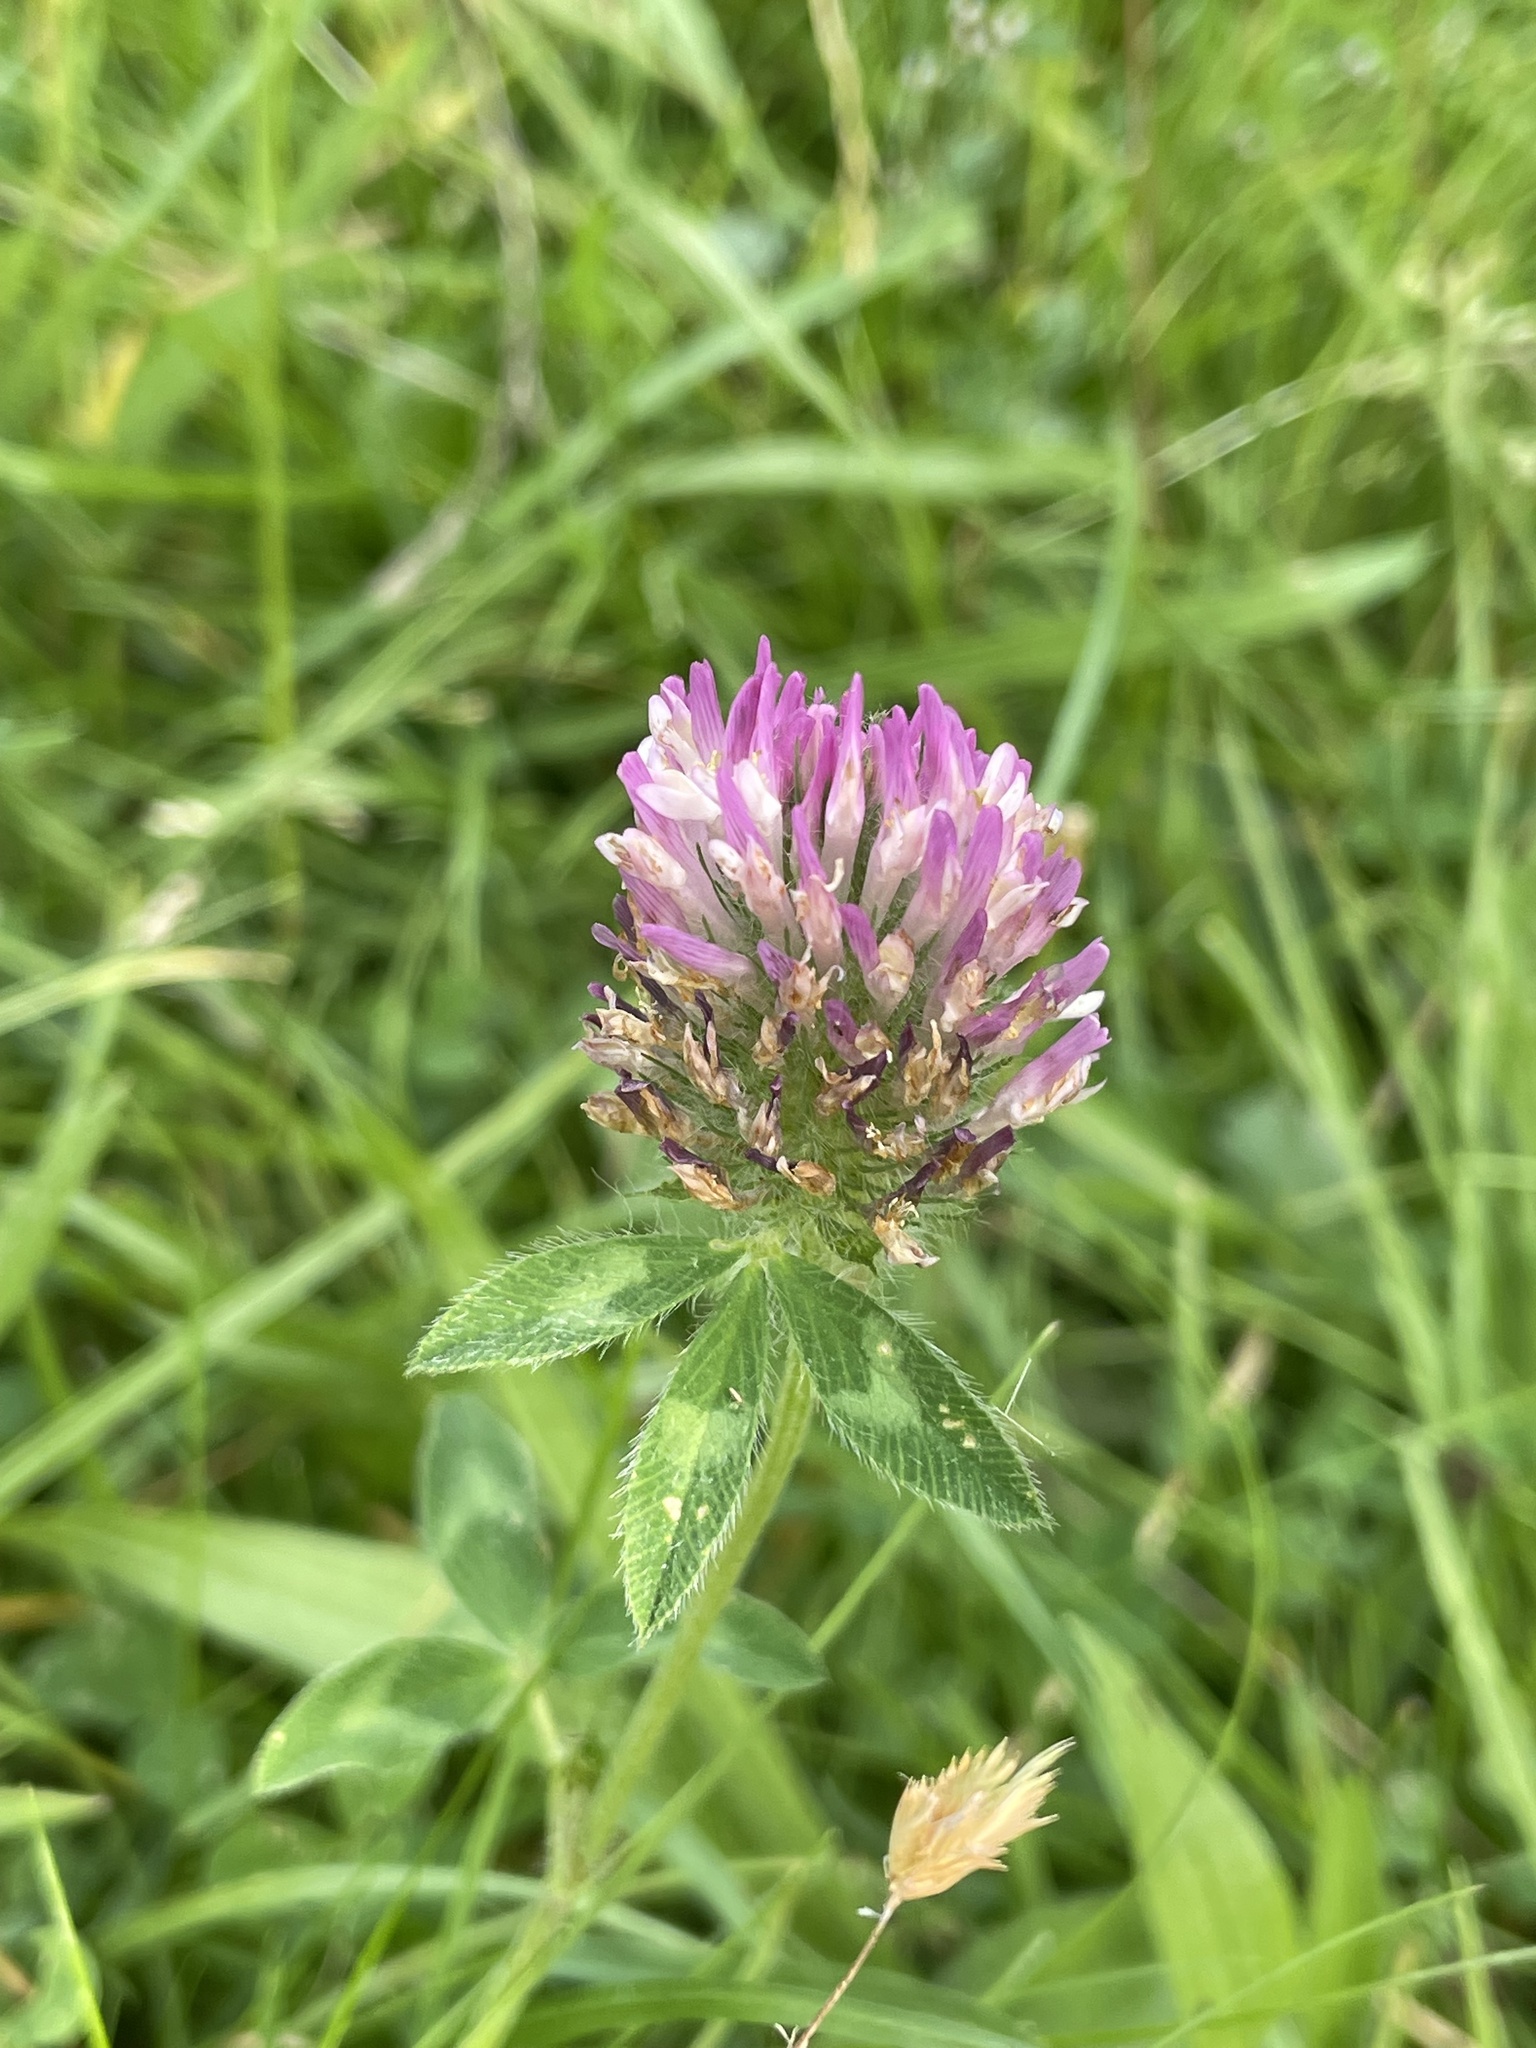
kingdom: Plantae
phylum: Tracheophyta
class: Magnoliopsida
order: Fabales
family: Fabaceae
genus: Trifolium
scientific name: Trifolium pratense
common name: Red clover
